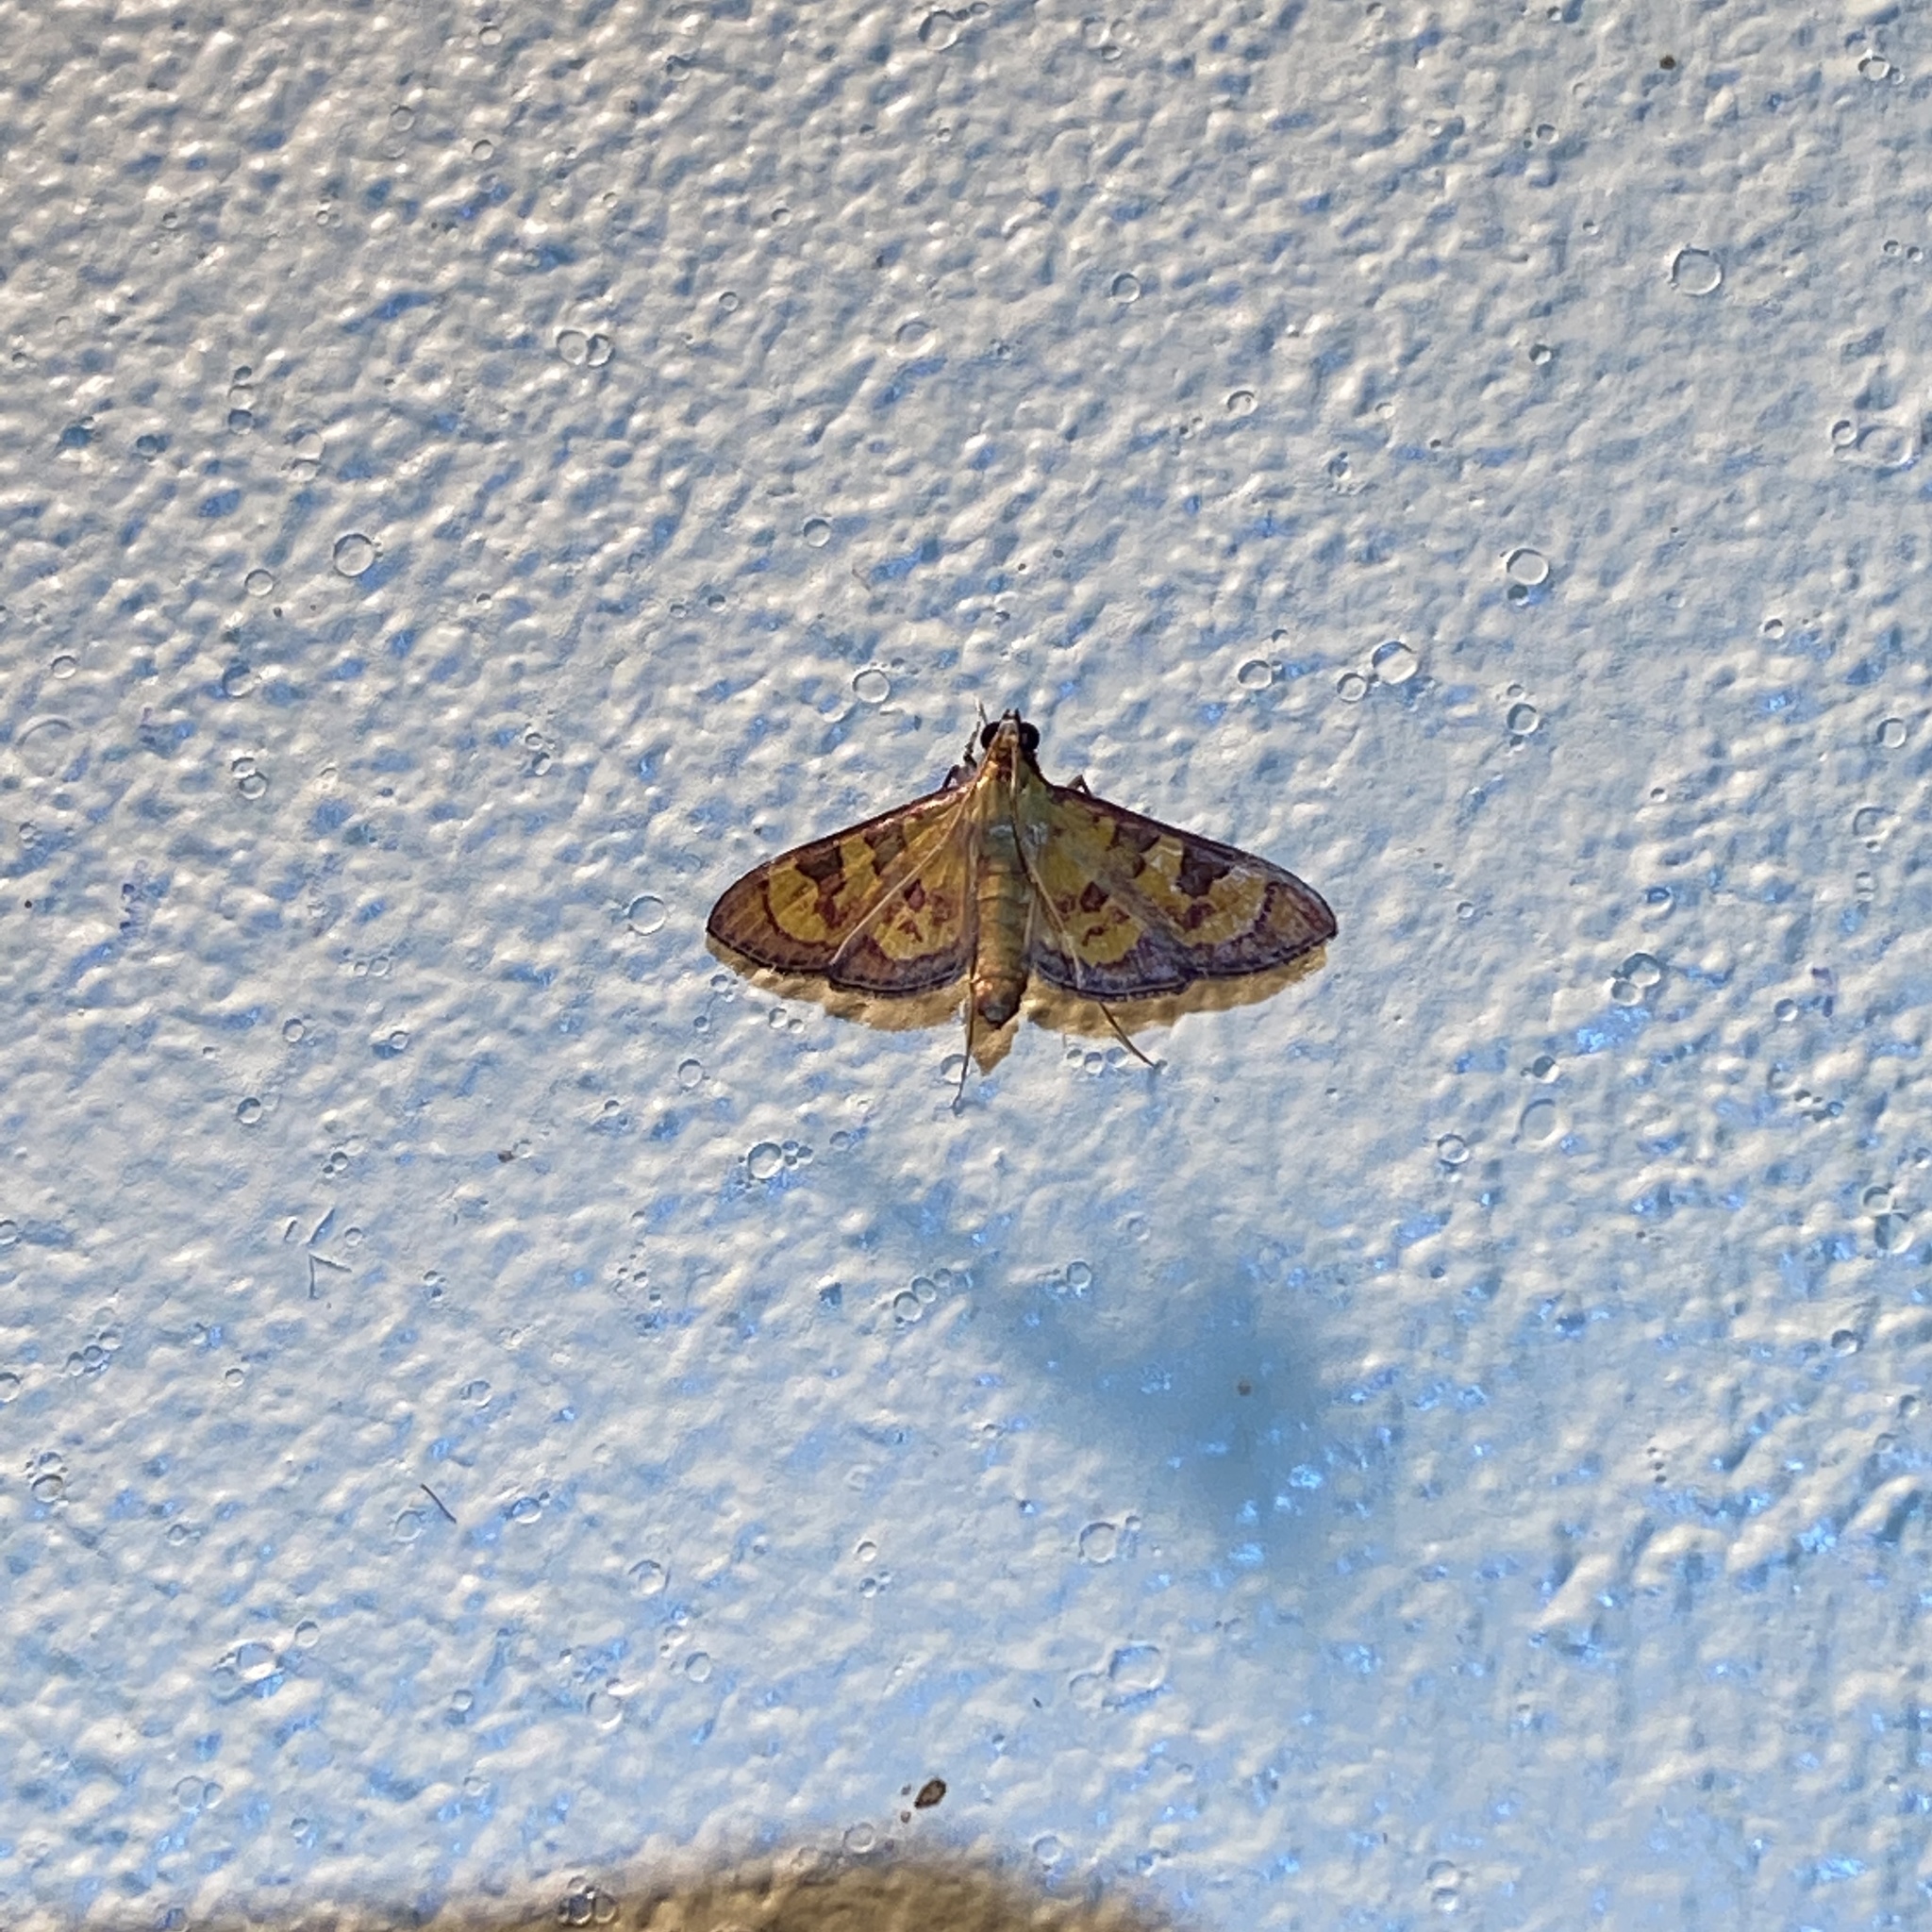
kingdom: Animalia
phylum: Arthropoda
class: Insecta
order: Lepidoptera
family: Crambidae
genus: Trithyris
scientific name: Trithyris
